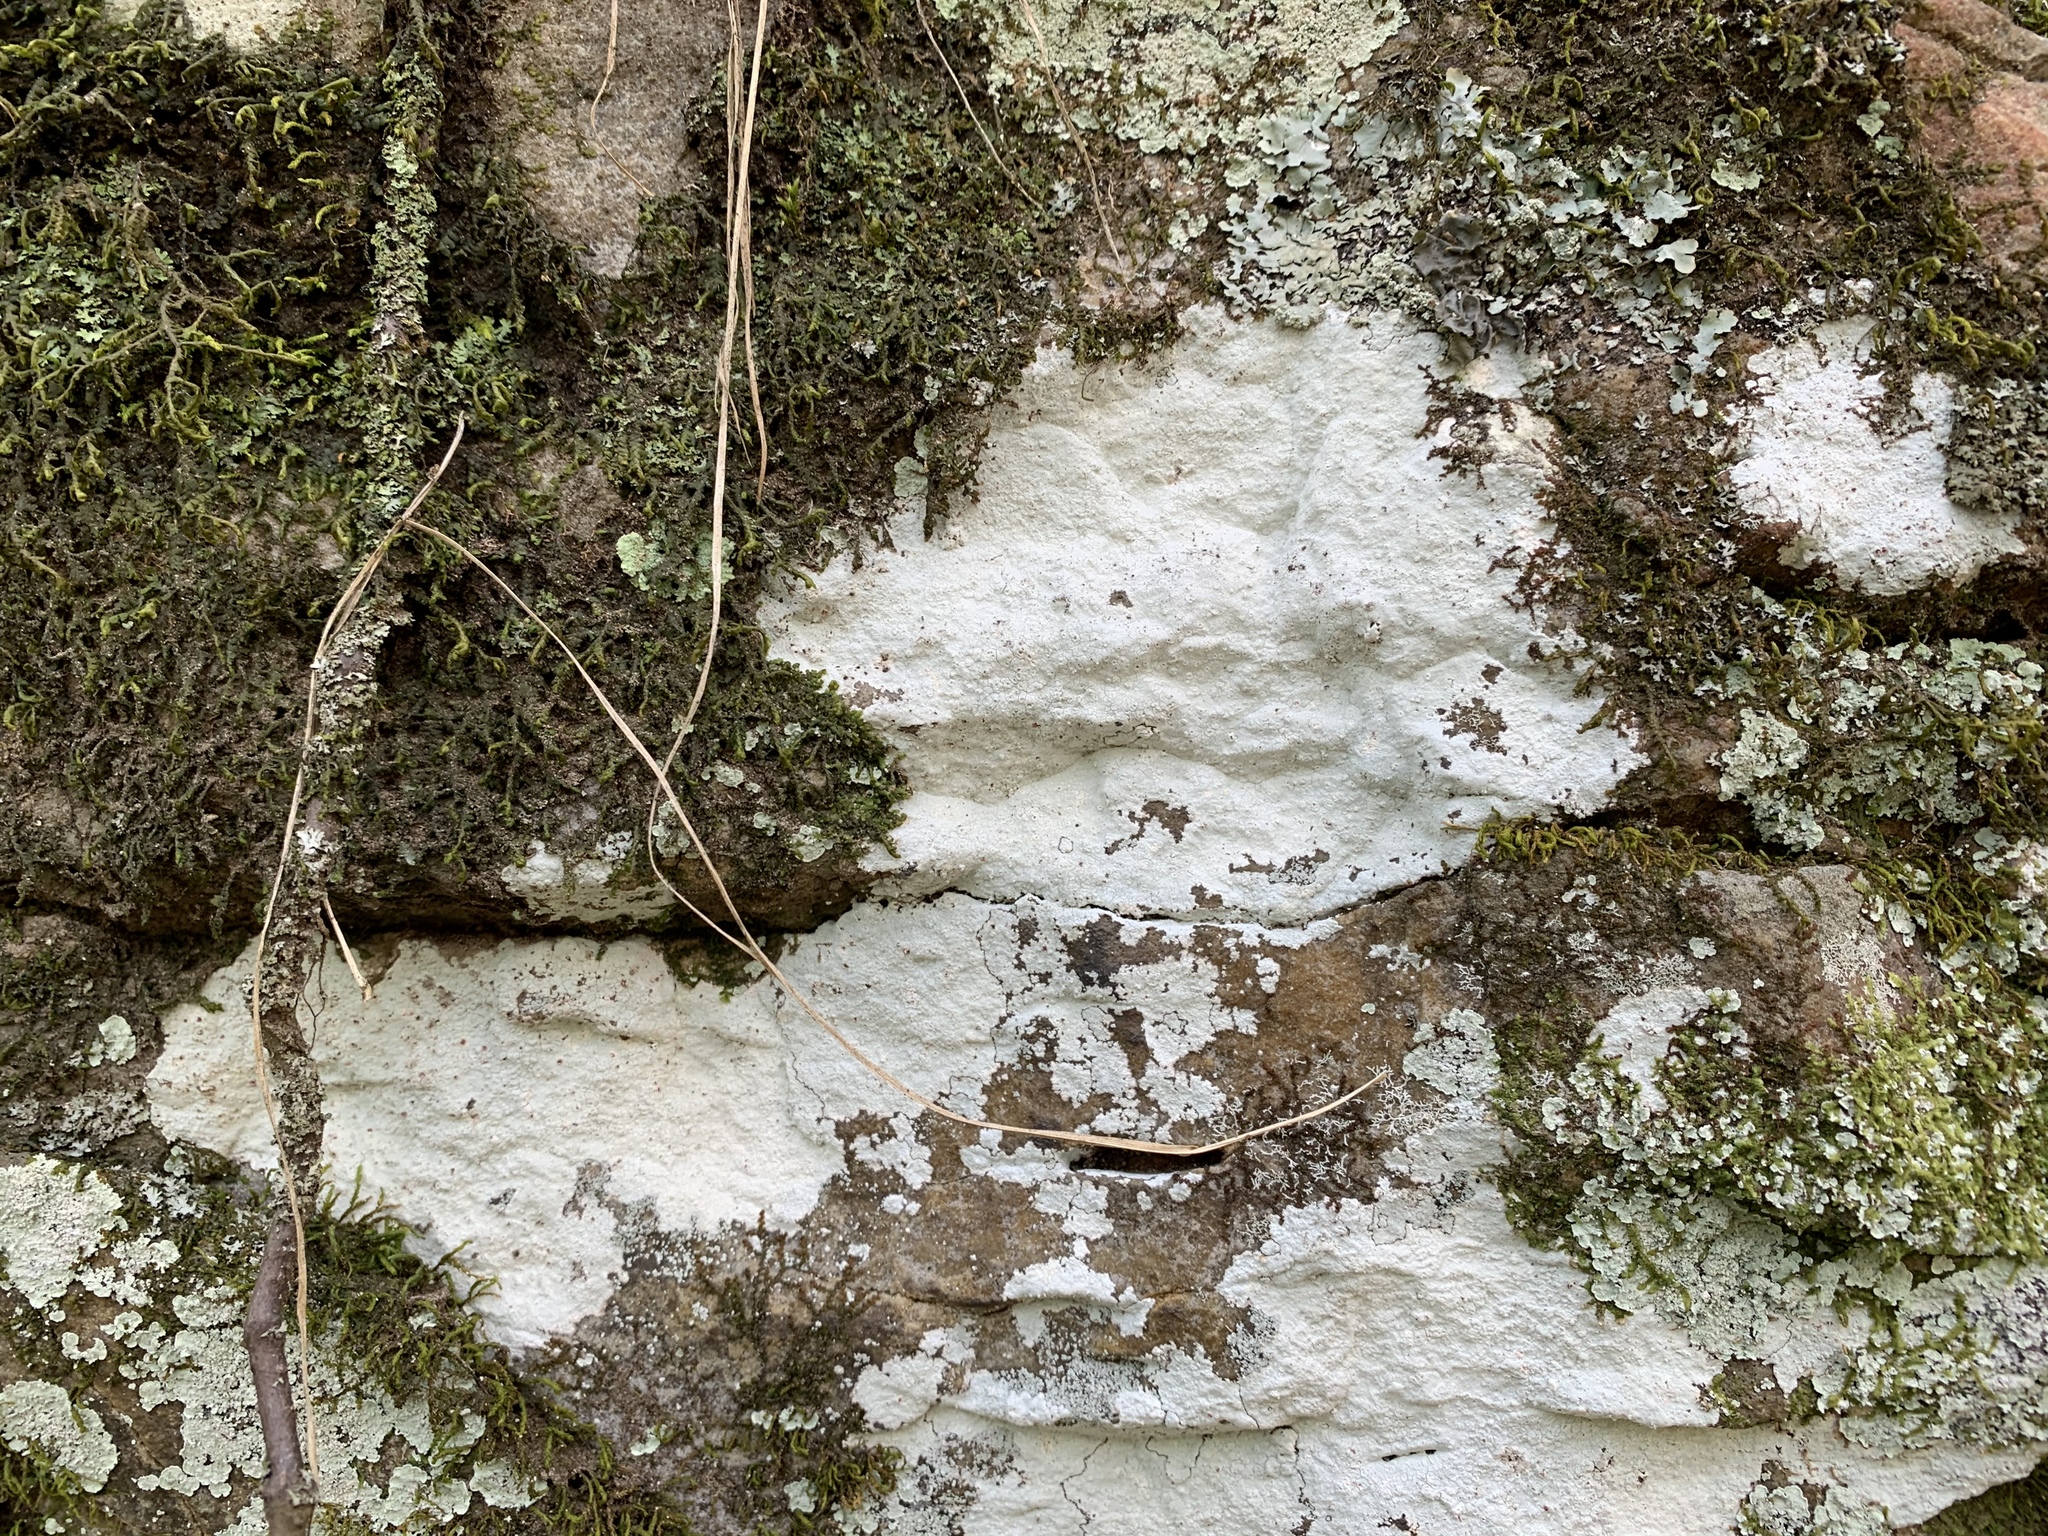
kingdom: Fungi
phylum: Ascomycota
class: Lecanoromycetes
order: Ostropales
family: Phlyctidaceae
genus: Phlyctis
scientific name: Phlyctis petraea
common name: Eggshell rock blaze
